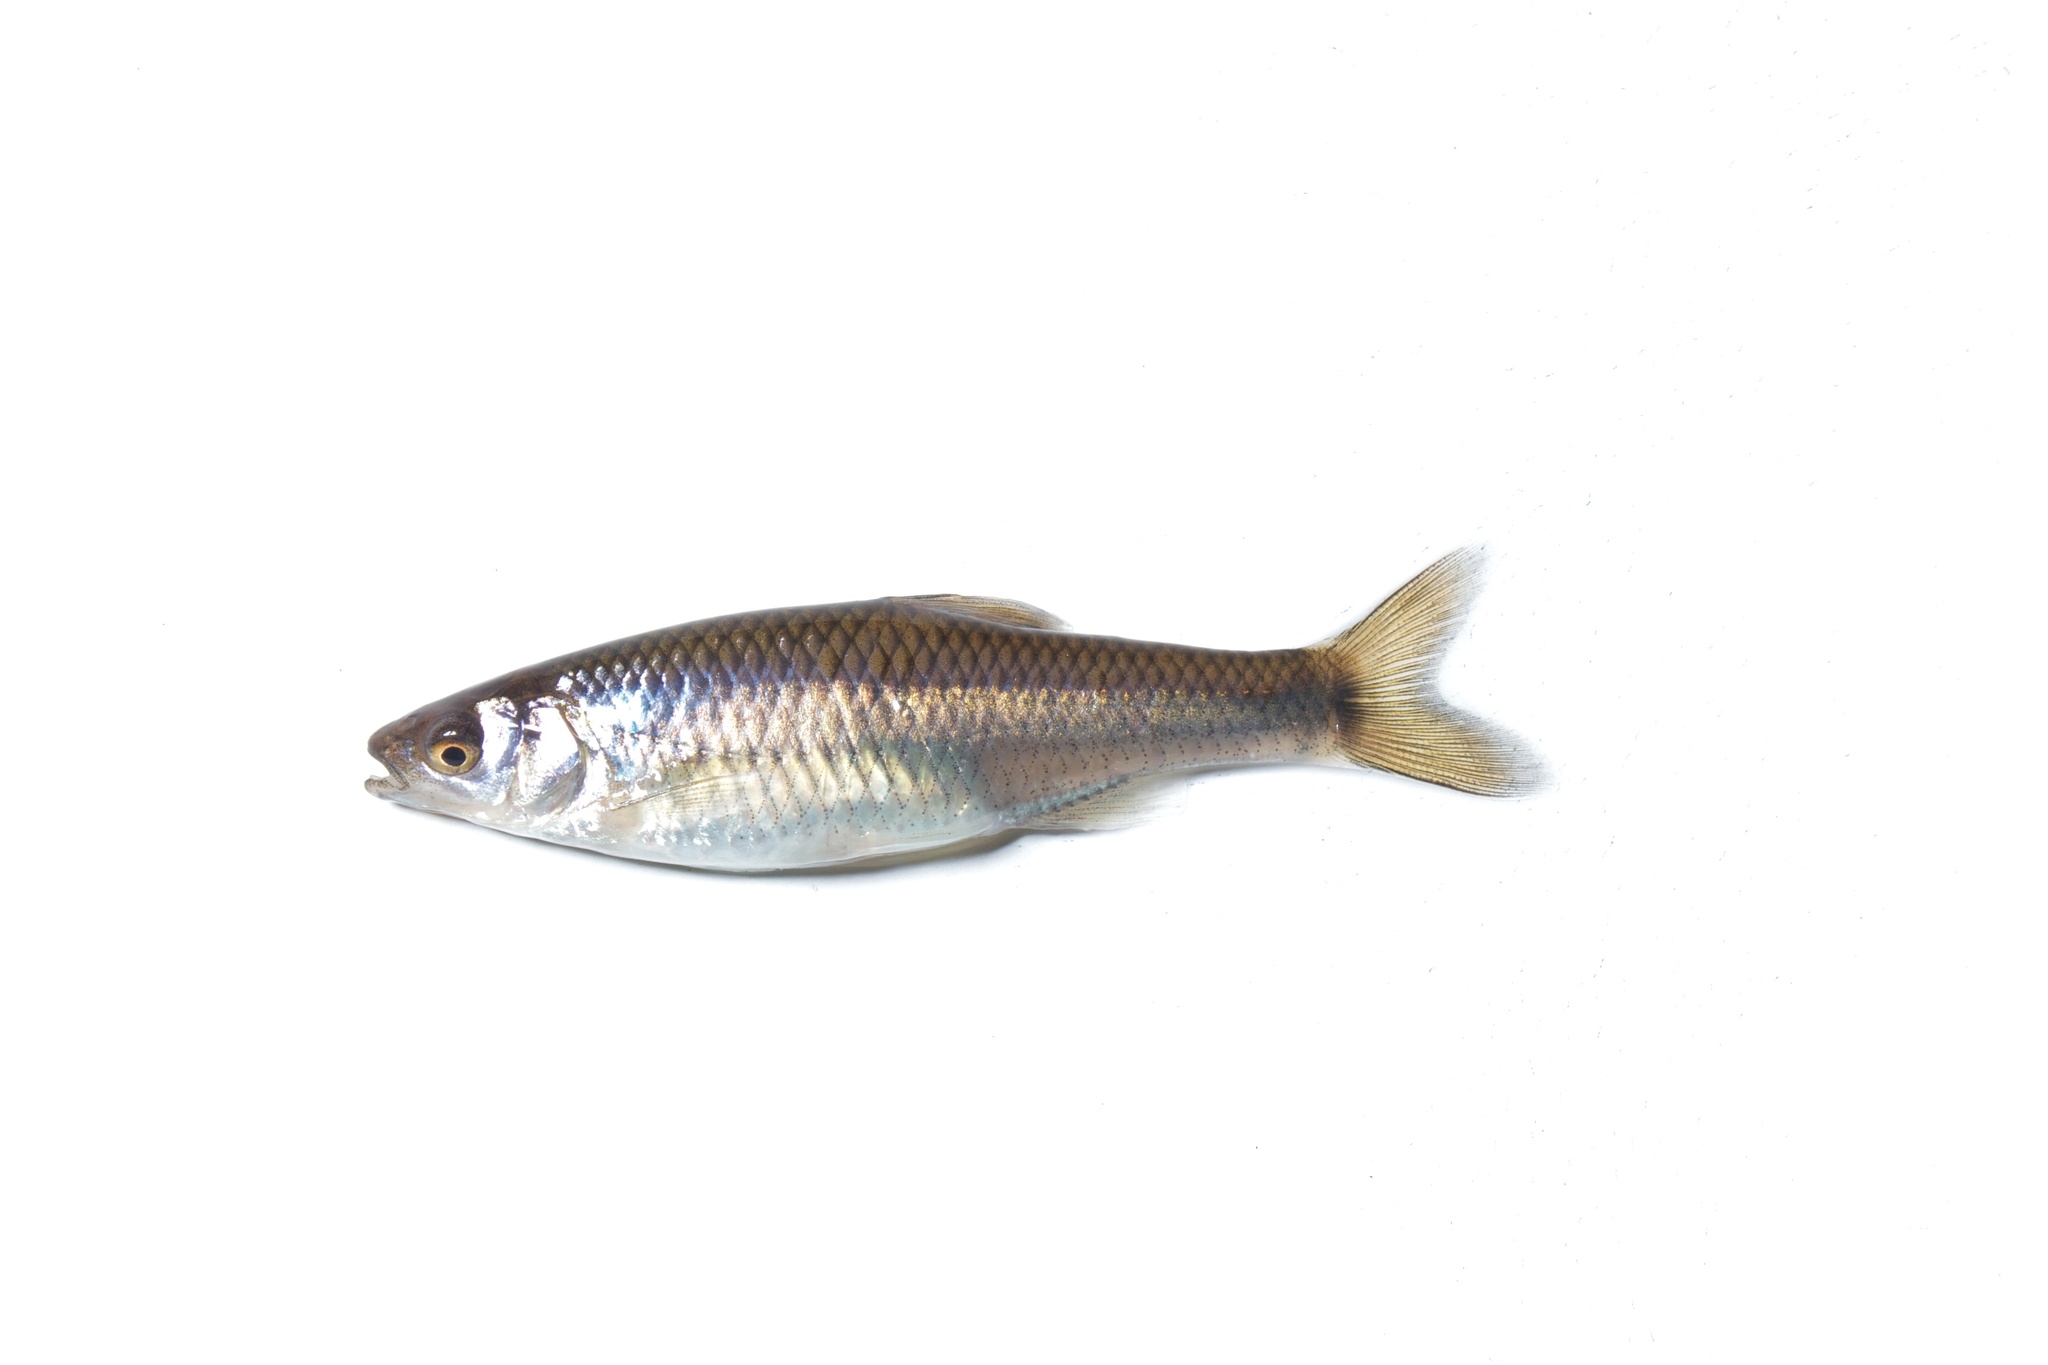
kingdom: Animalia
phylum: Chordata
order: Cypriniformes
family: Cyprinidae
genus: Cyprinella
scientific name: Cyprinella spiloptera
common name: Spotfin shiner
